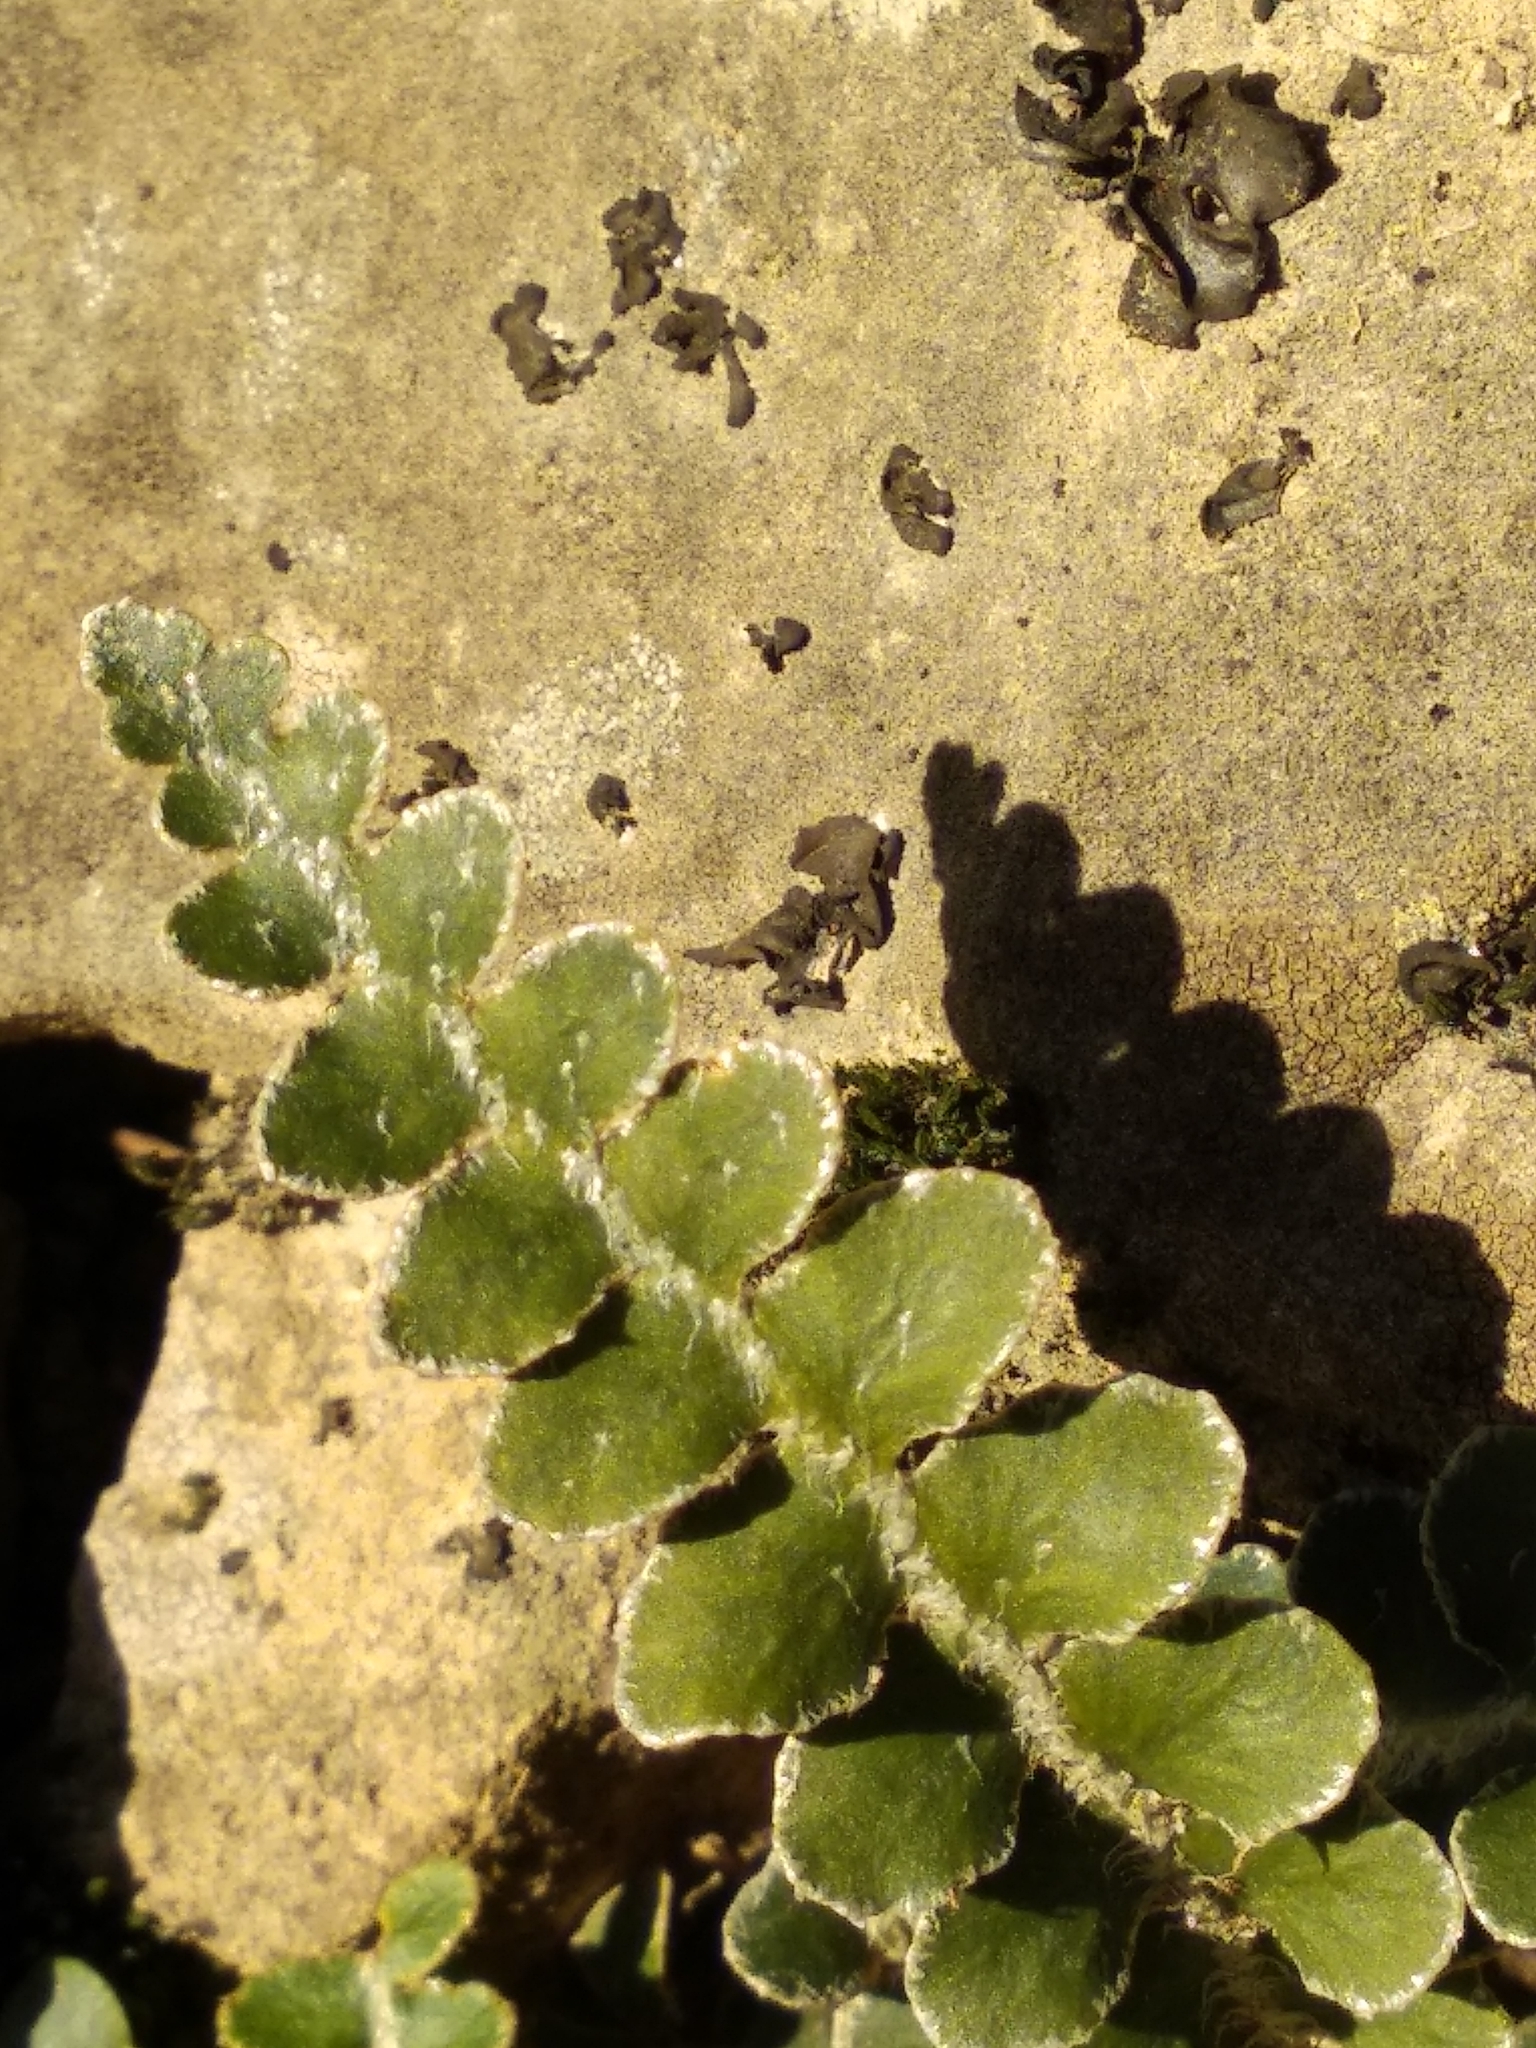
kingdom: Plantae
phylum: Tracheophyta
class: Polypodiopsida
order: Polypodiales
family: Aspleniaceae
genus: Asplenium
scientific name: Asplenium ceterach
